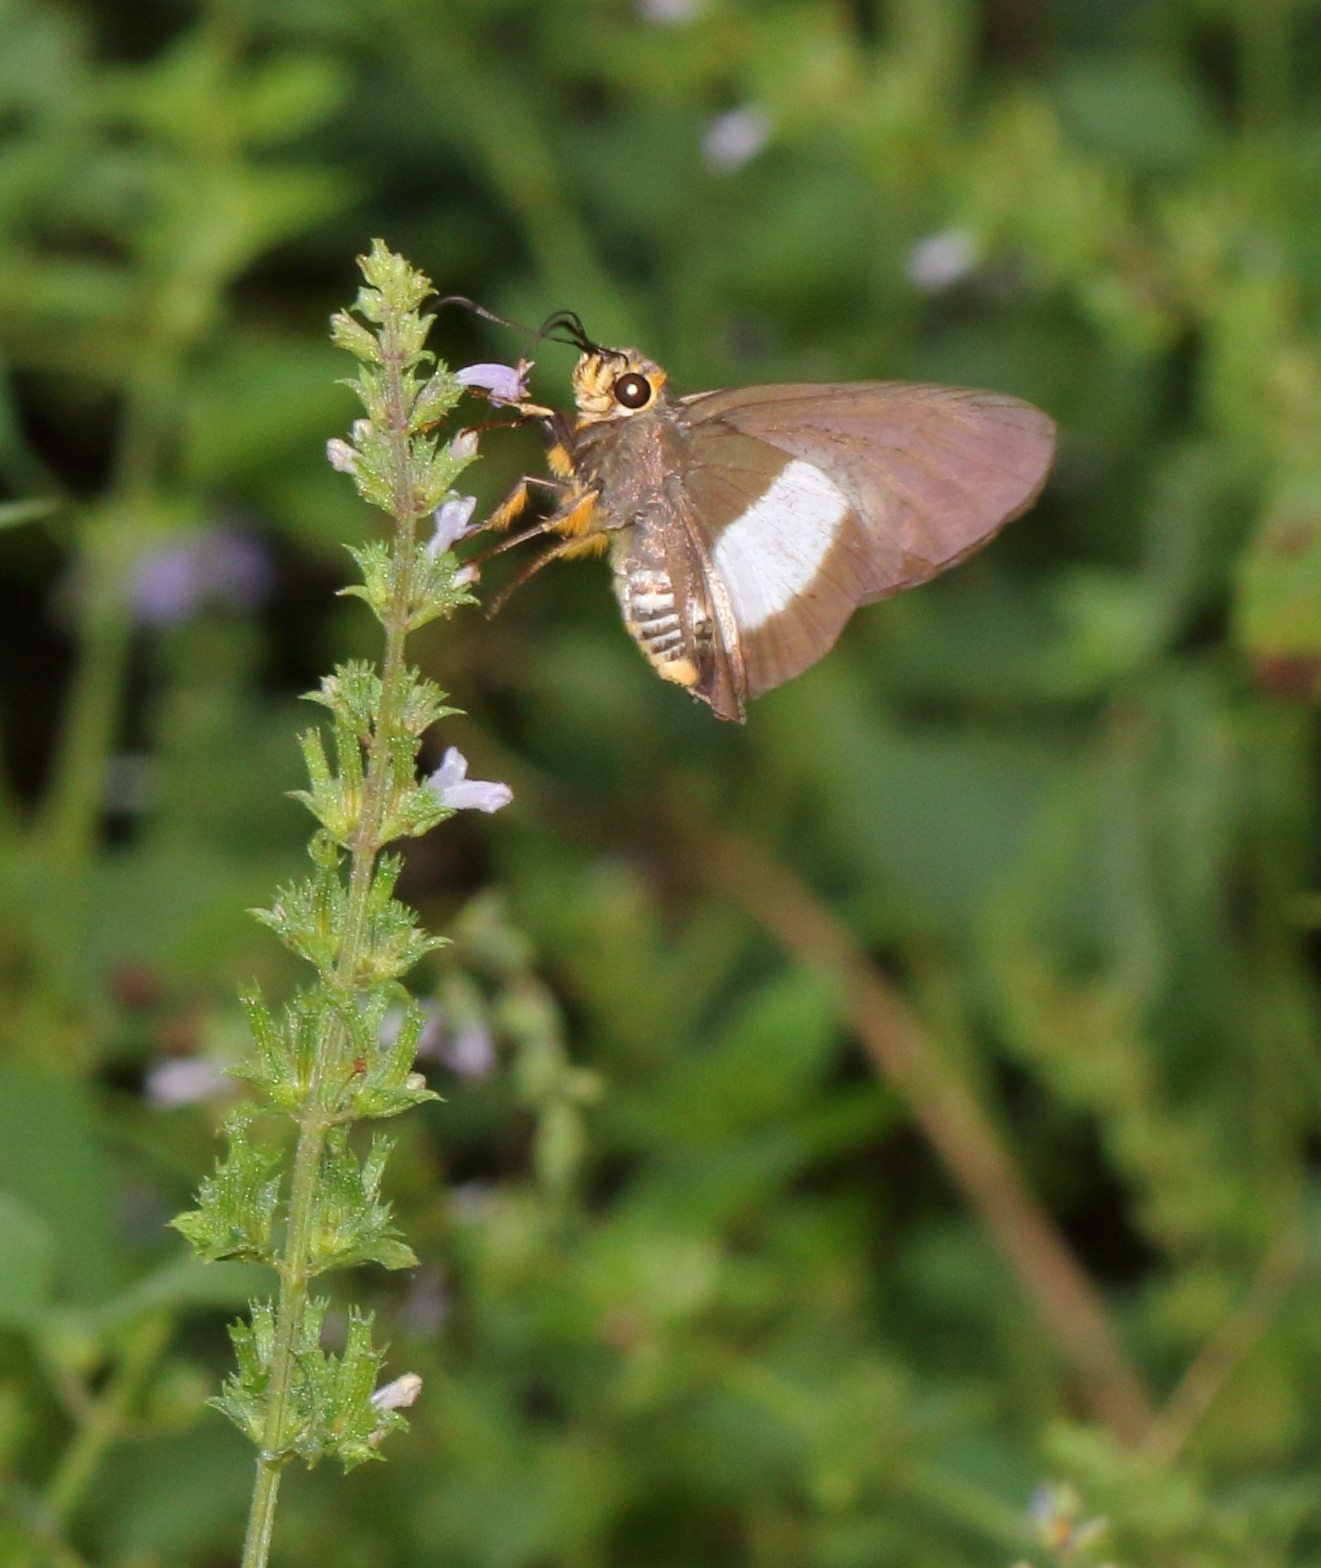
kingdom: Animalia
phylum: Arthropoda
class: Insecta
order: Lepidoptera
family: Hesperiidae
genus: Coeliades
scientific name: Coeliades forestan
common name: Striped policeman
